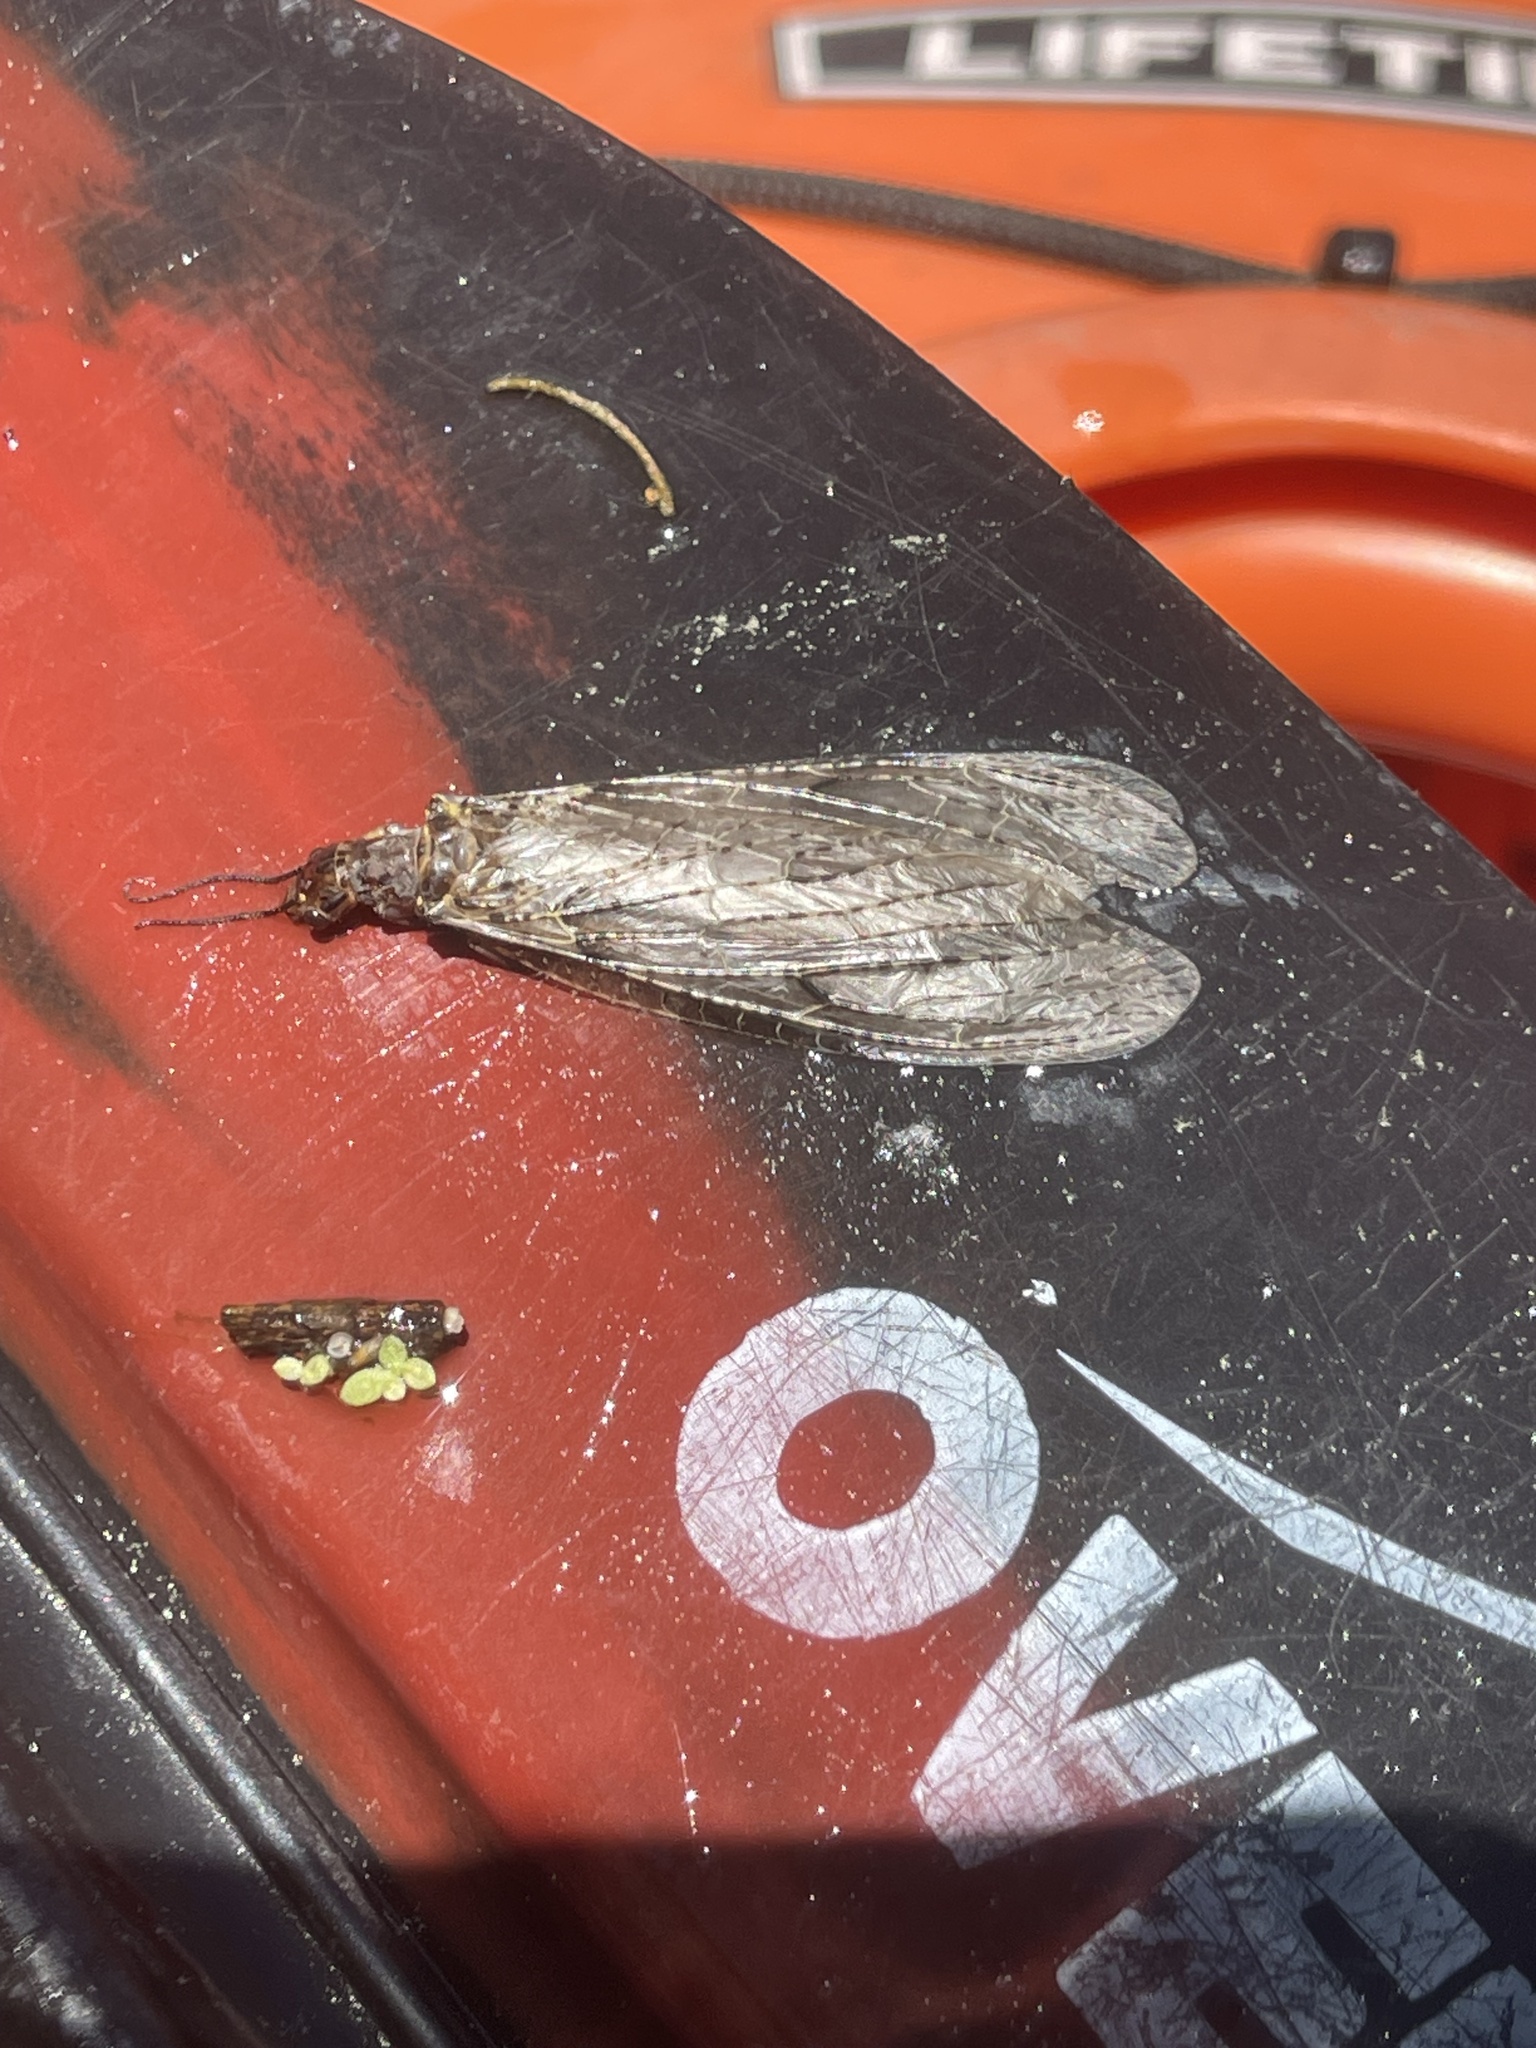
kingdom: Animalia
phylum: Arthropoda
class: Insecta
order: Megaloptera
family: Corydalidae
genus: Chauliodes
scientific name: Chauliodes rastricornis
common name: Spring fishfly
